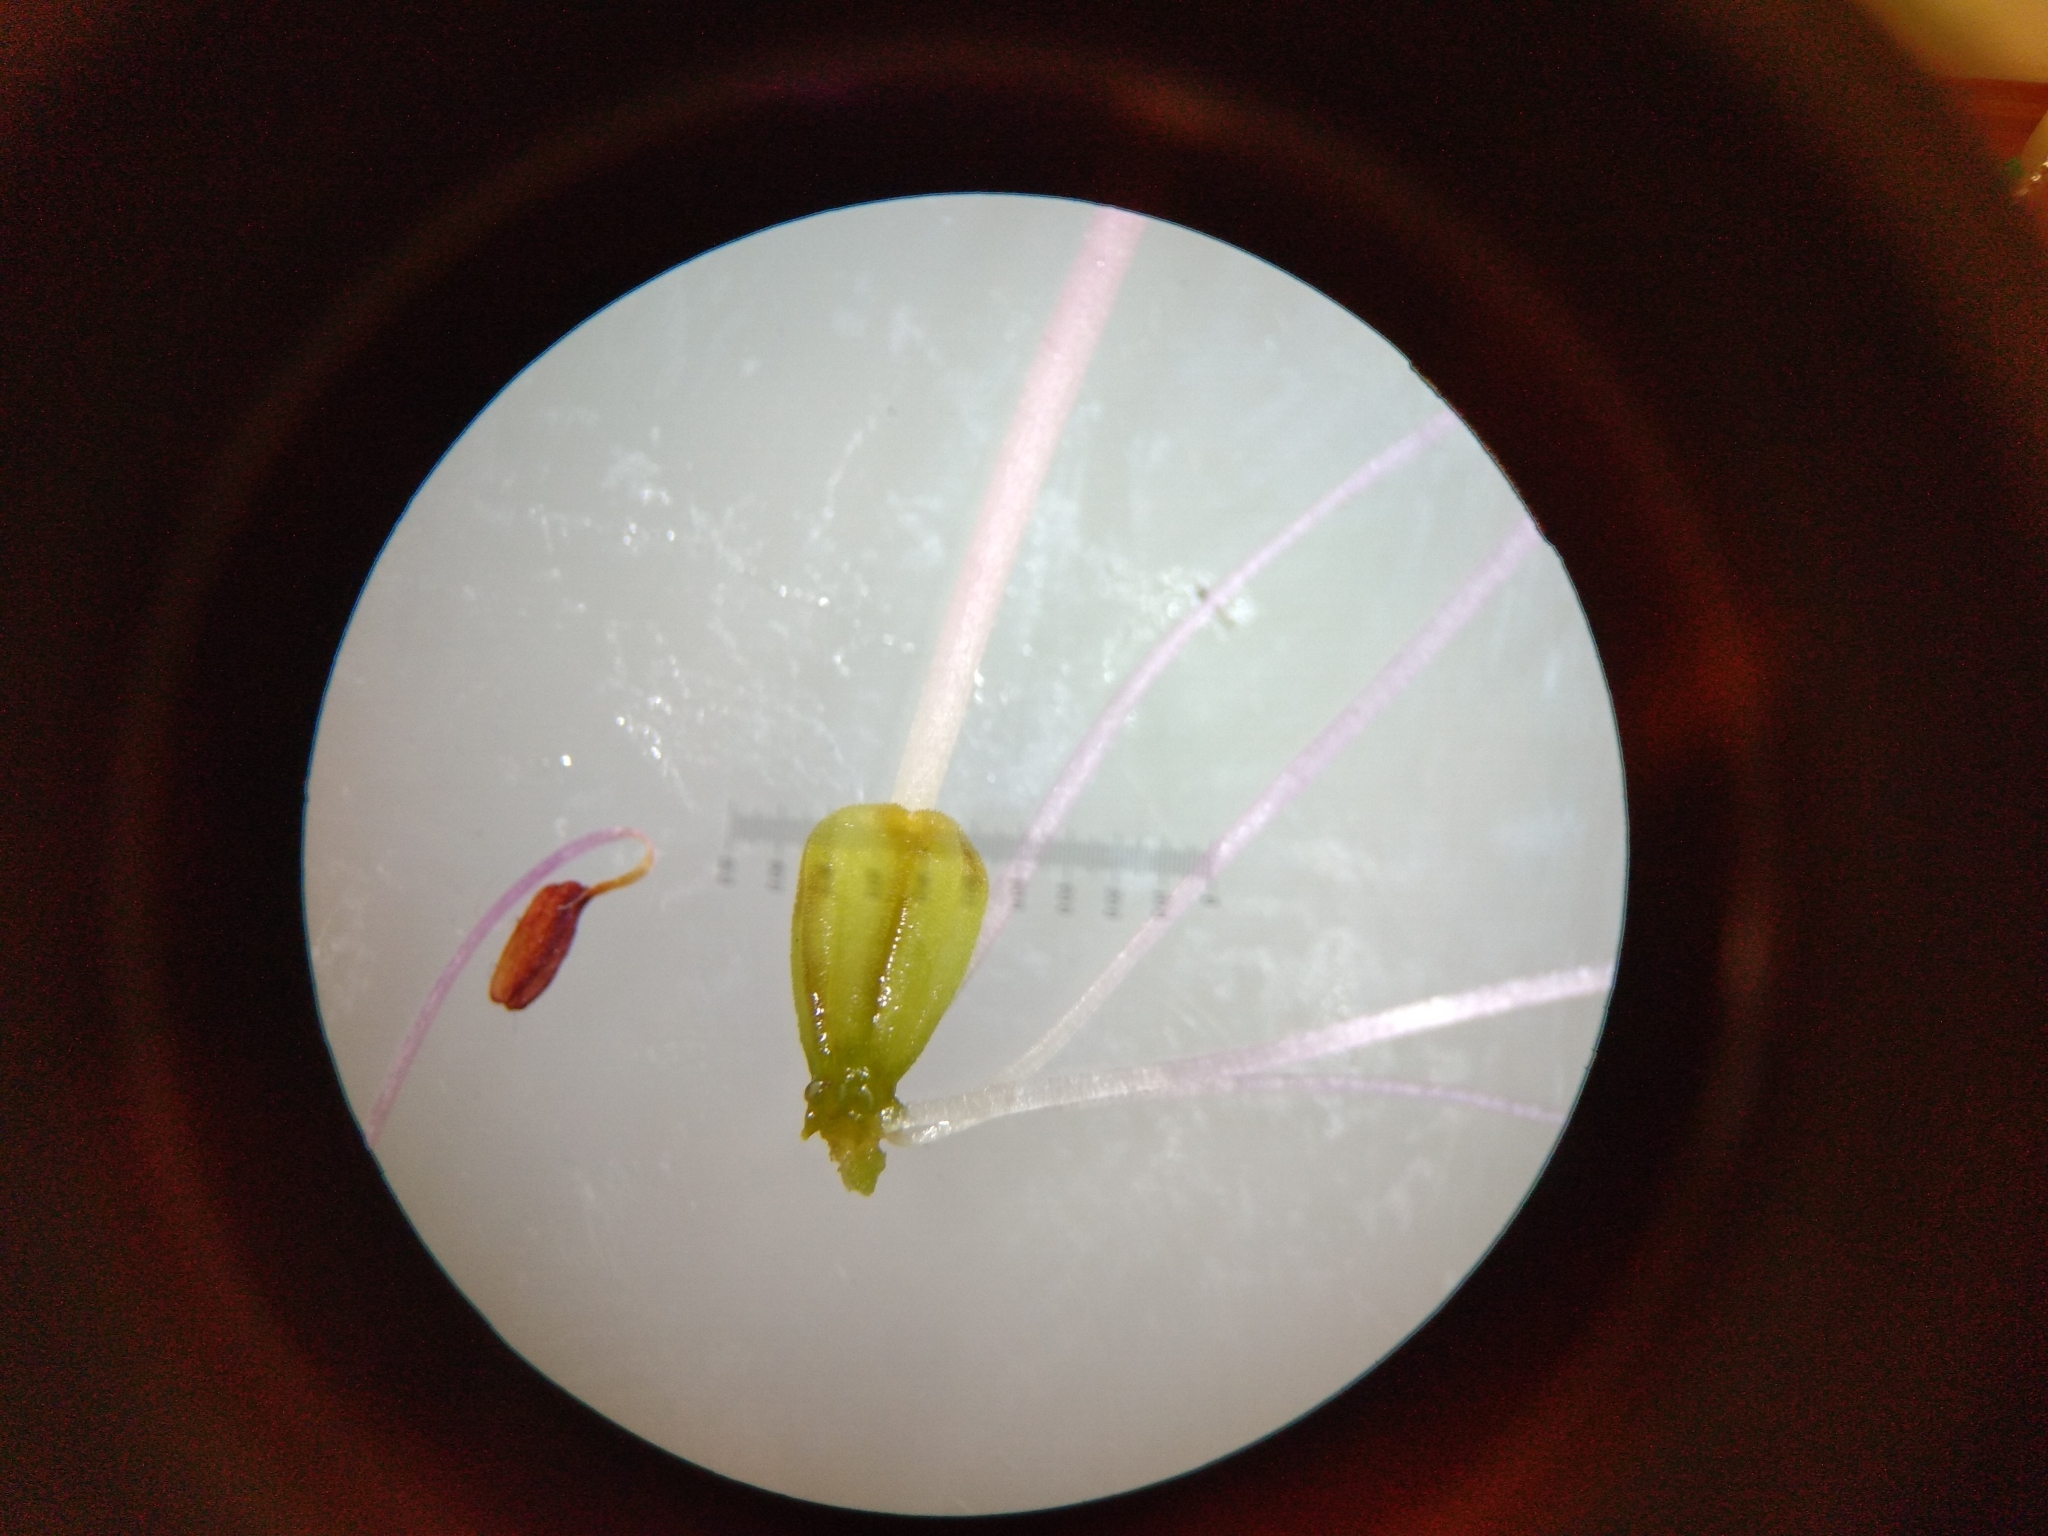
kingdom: Plantae
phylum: Tracheophyta
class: Magnoliopsida
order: Ericales
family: Ericaceae
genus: Erica
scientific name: Erica abietina
